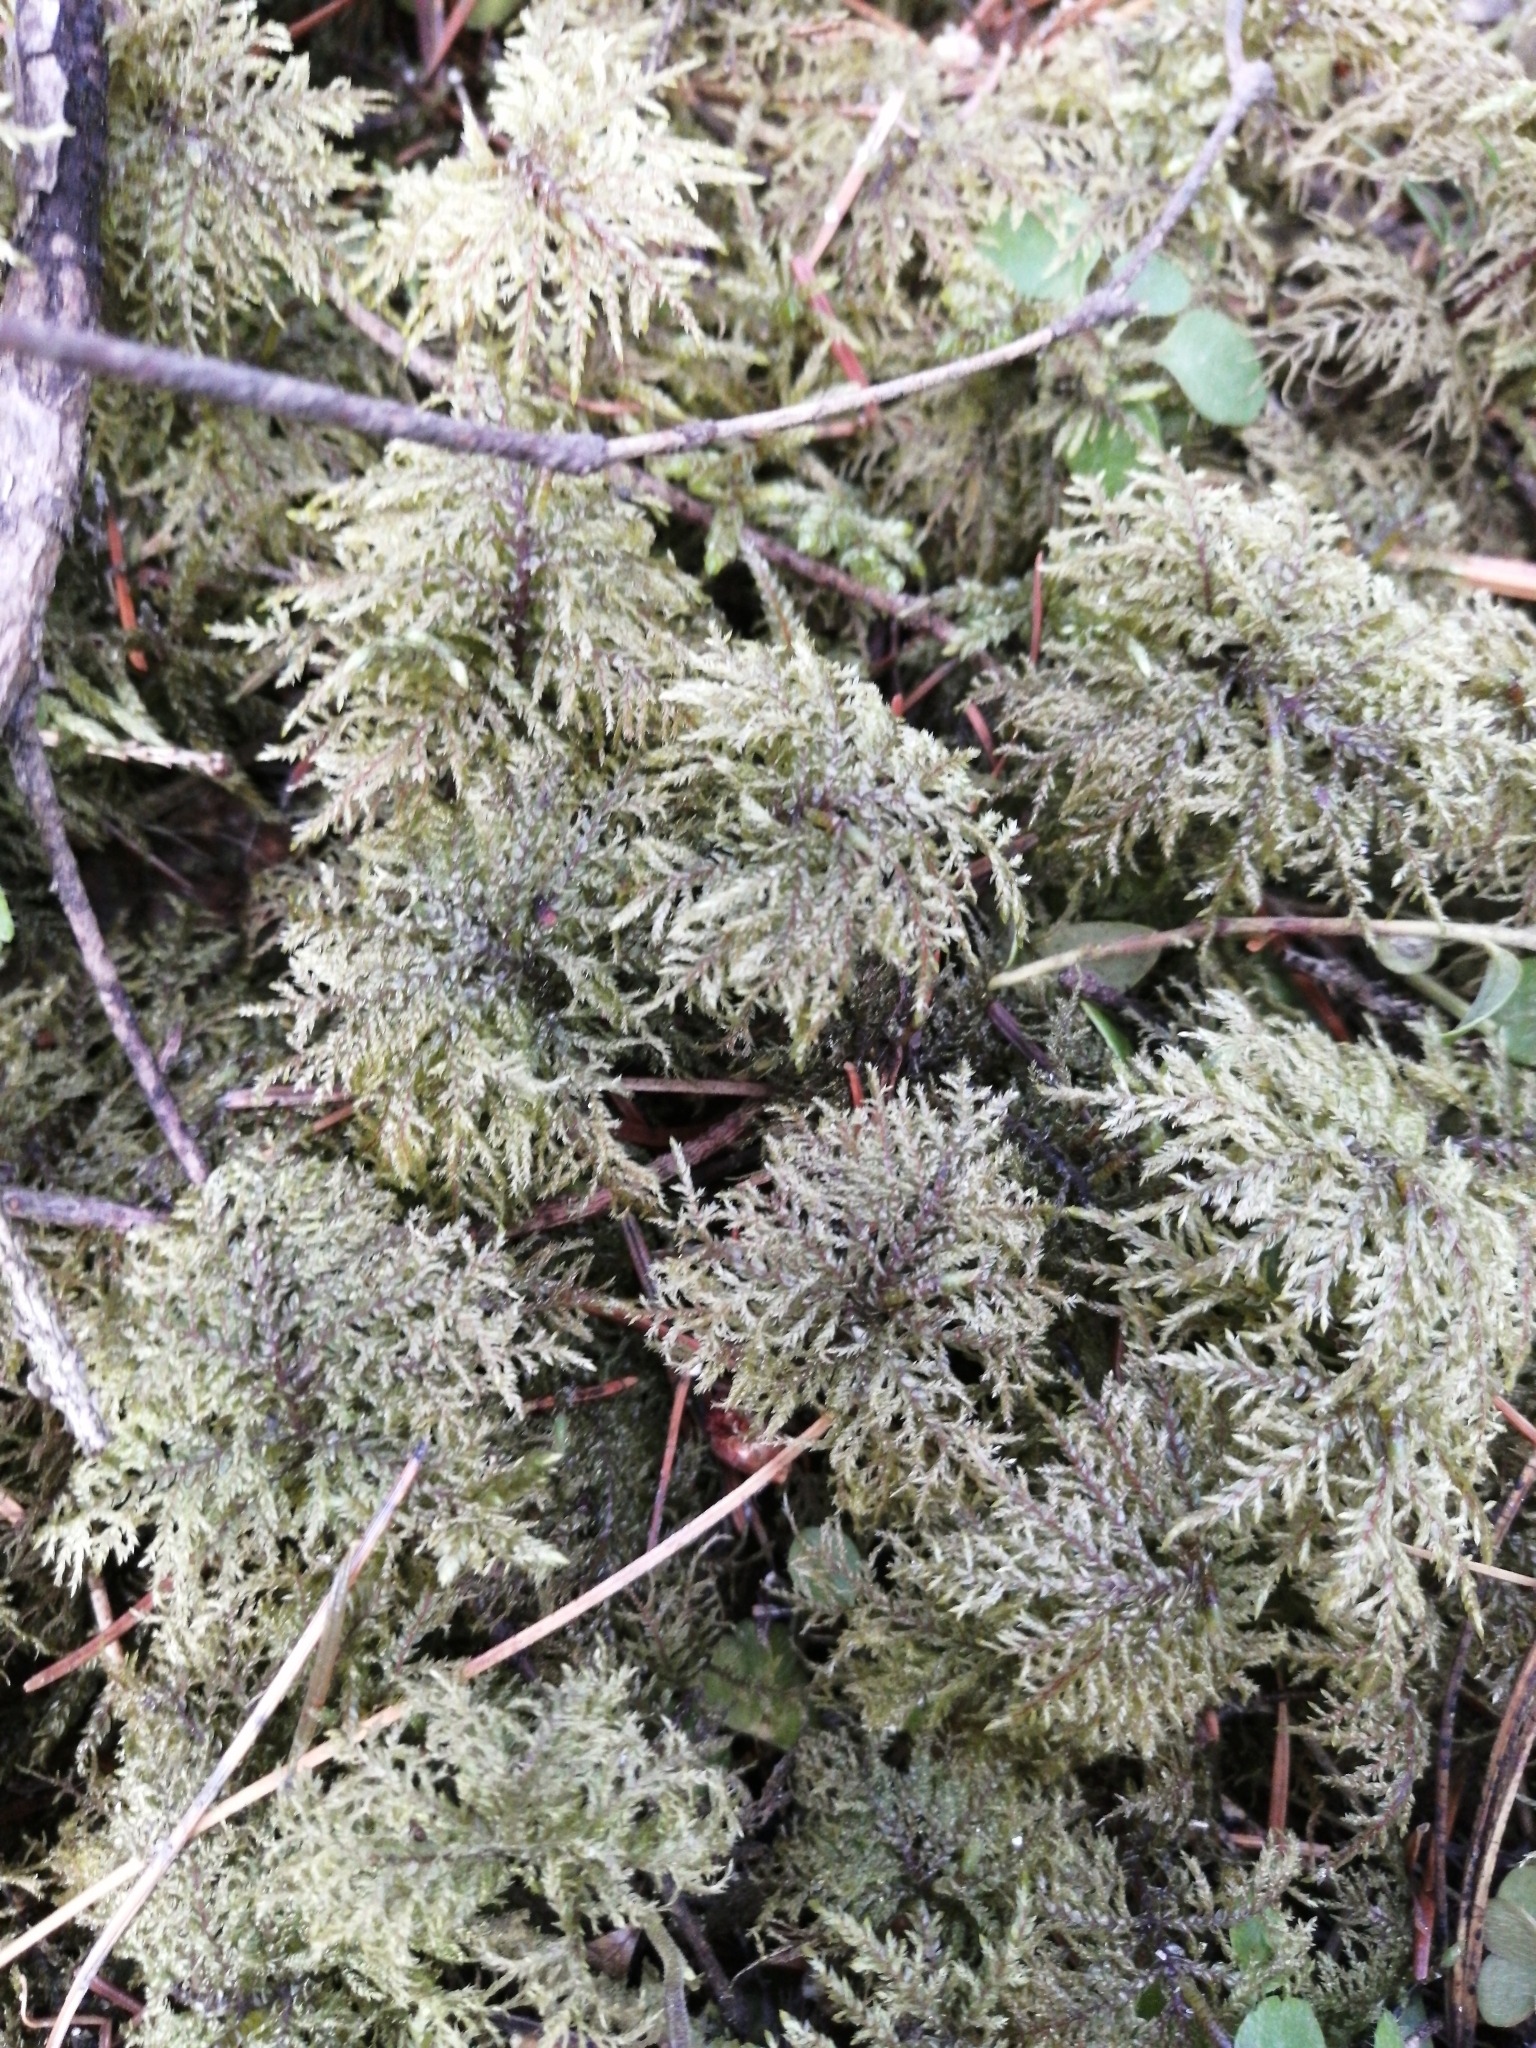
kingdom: Plantae
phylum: Bryophyta
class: Bryopsida
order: Hypnales
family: Hylocomiaceae
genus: Hylocomium
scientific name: Hylocomium splendens
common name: Stairstep moss
